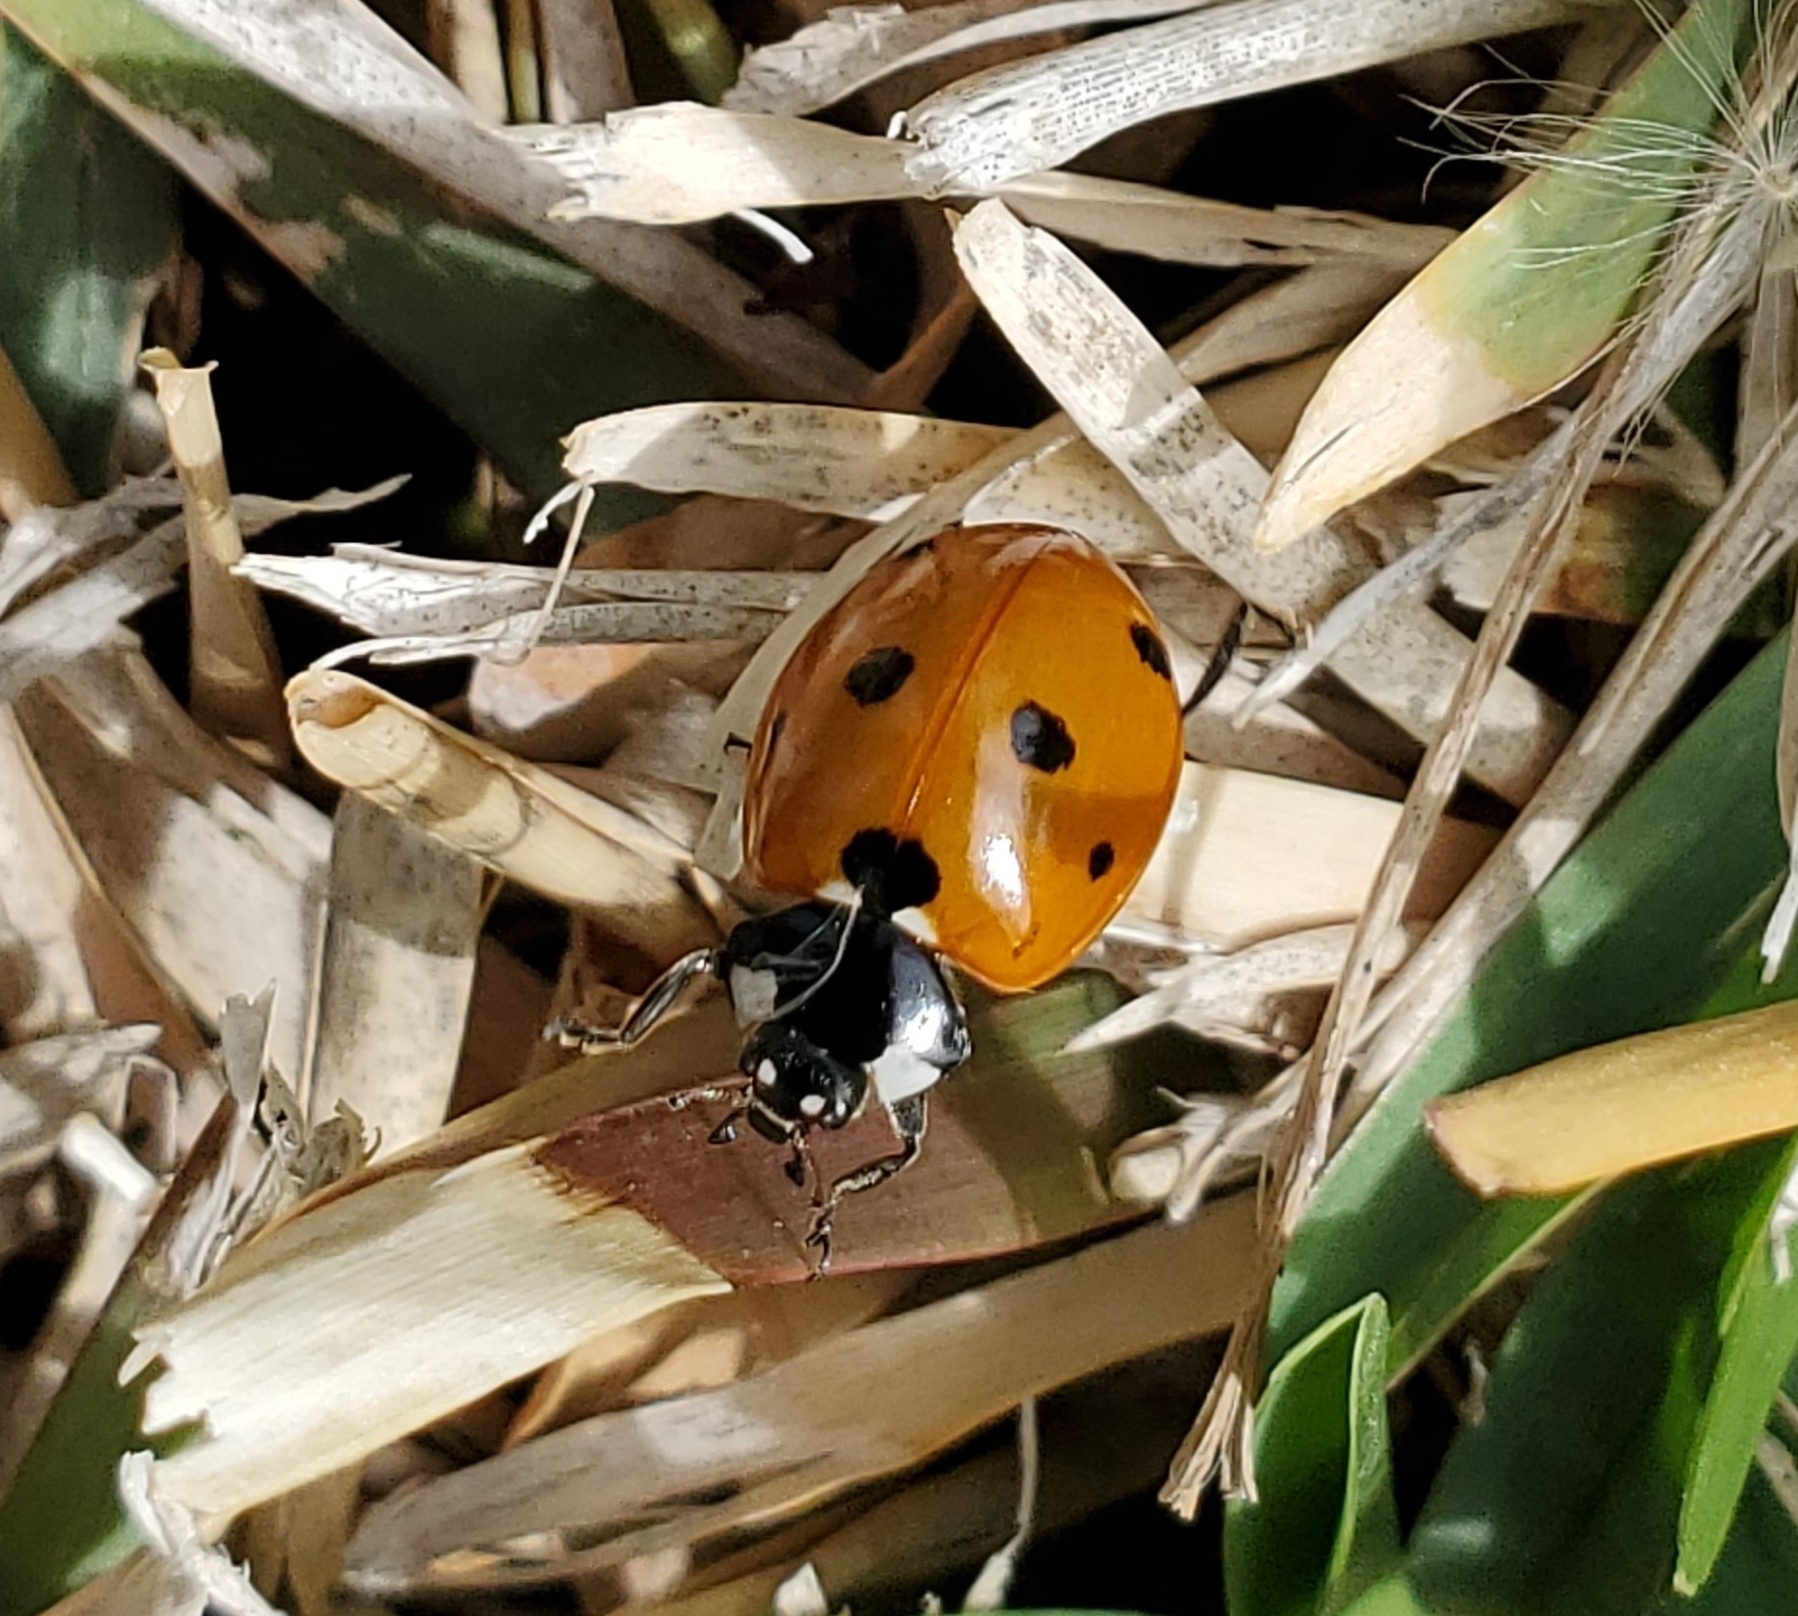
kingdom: Animalia
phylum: Arthropoda
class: Insecta
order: Coleoptera
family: Coccinellidae
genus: Coccinella
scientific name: Coccinella septempunctata
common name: Sevenspotted lady beetle
